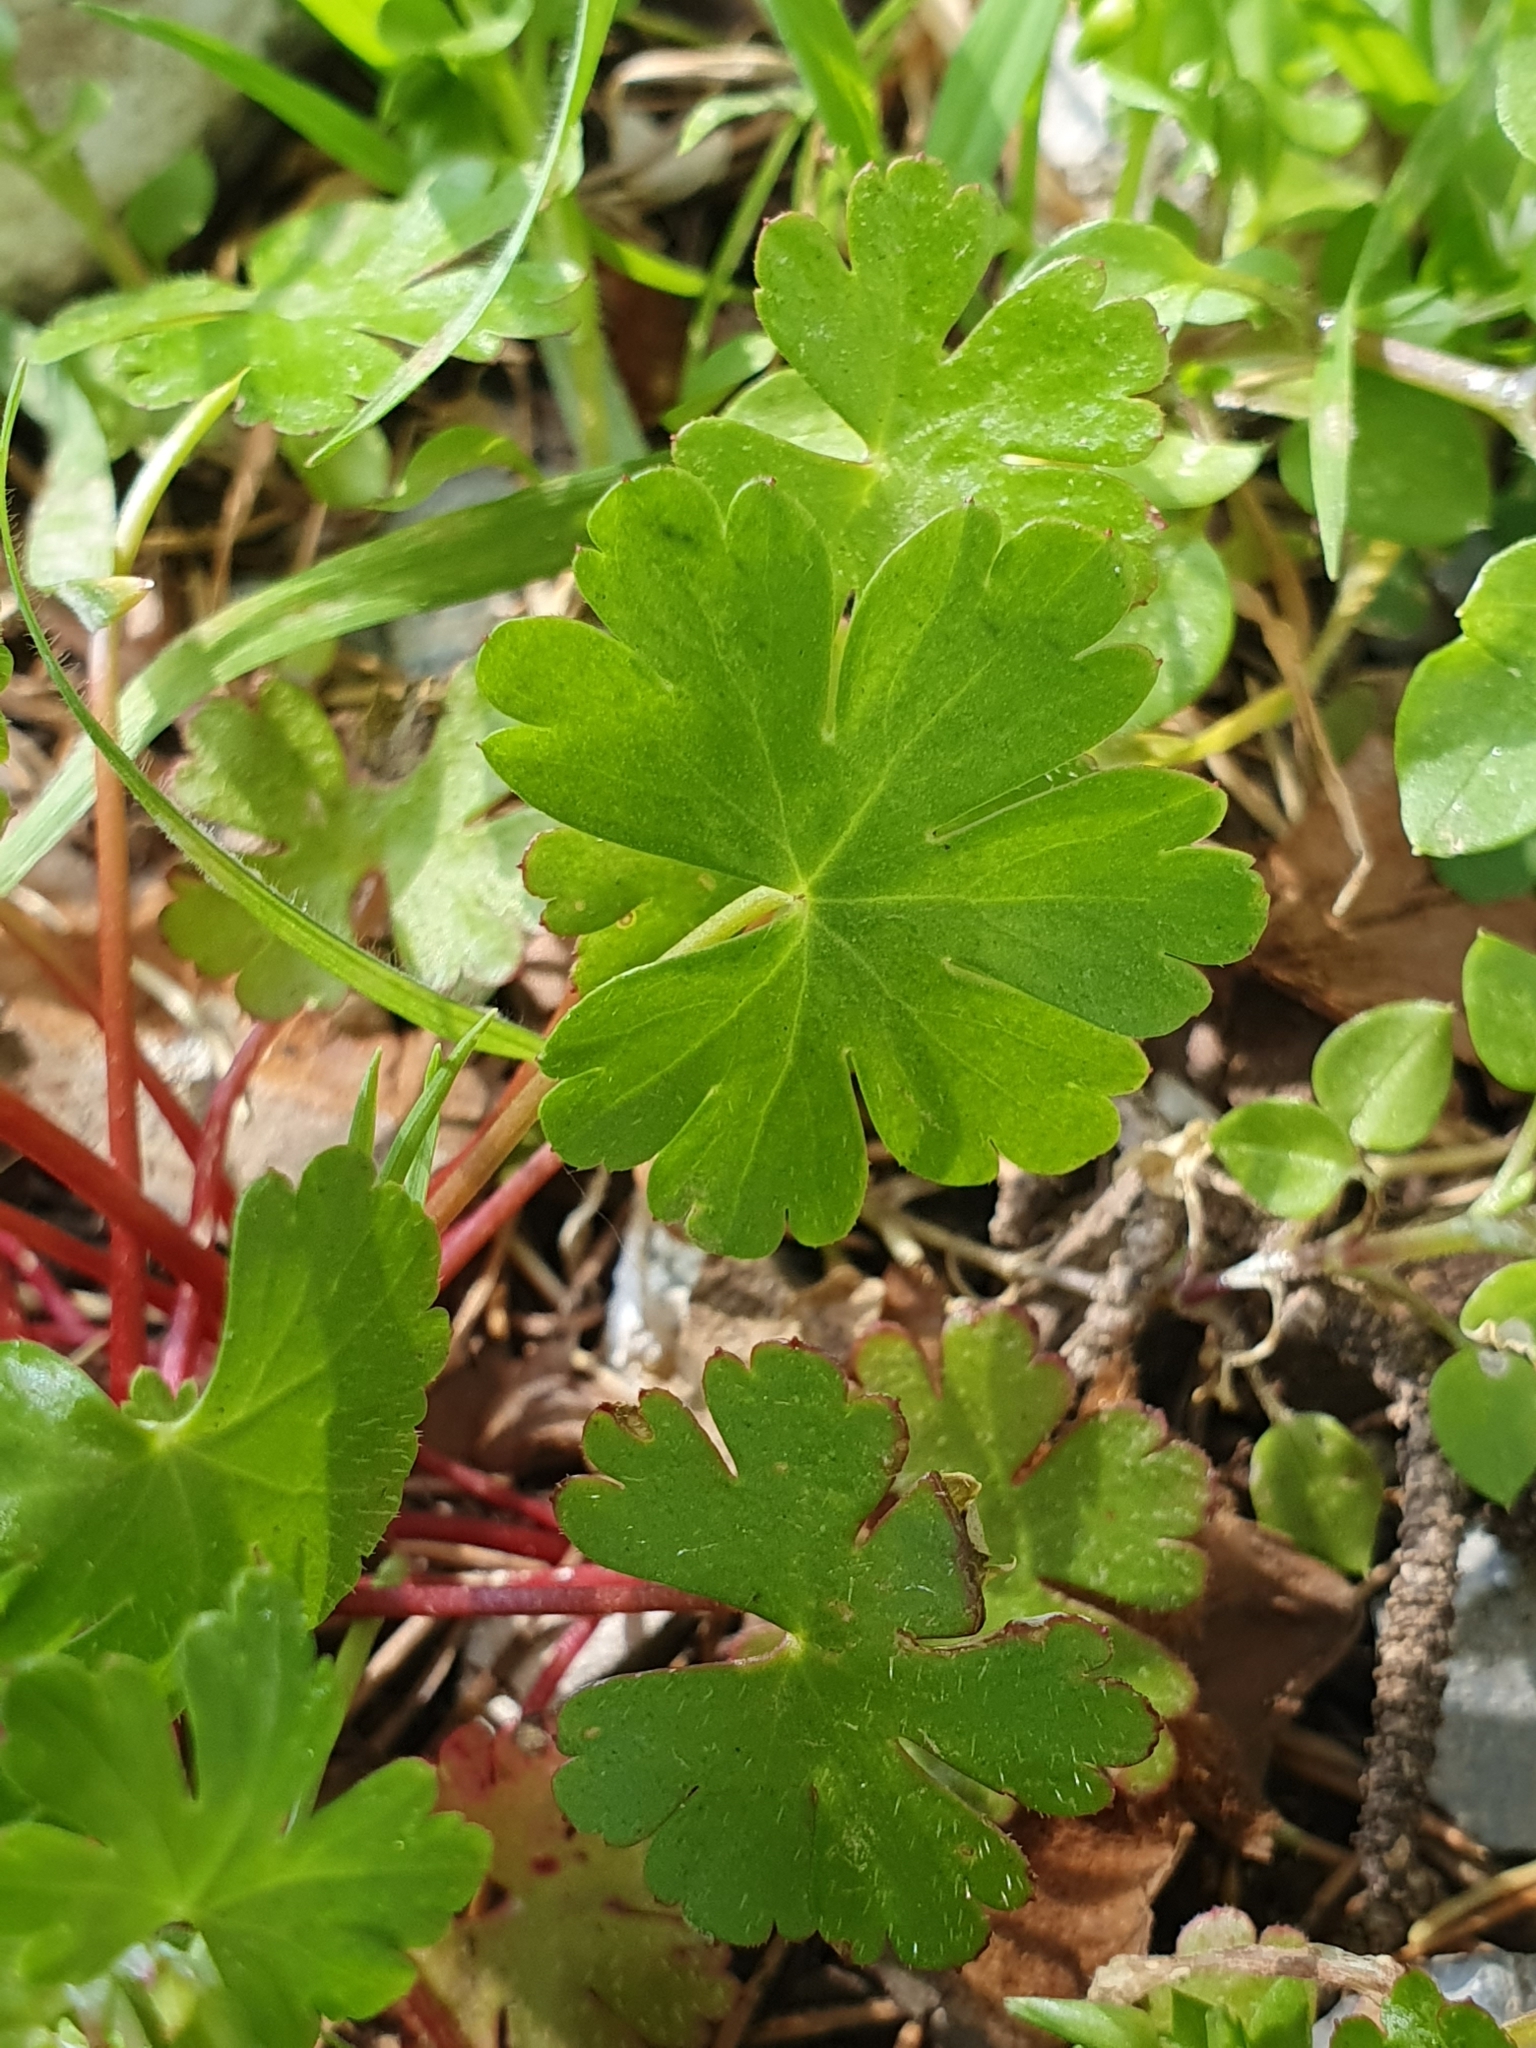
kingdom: Plantae
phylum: Tracheophyta
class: Magnoliopsida
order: Geraniales
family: Geraniaceae
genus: Geranium
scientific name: Geranium lucidum
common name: Shining crane's-bill
